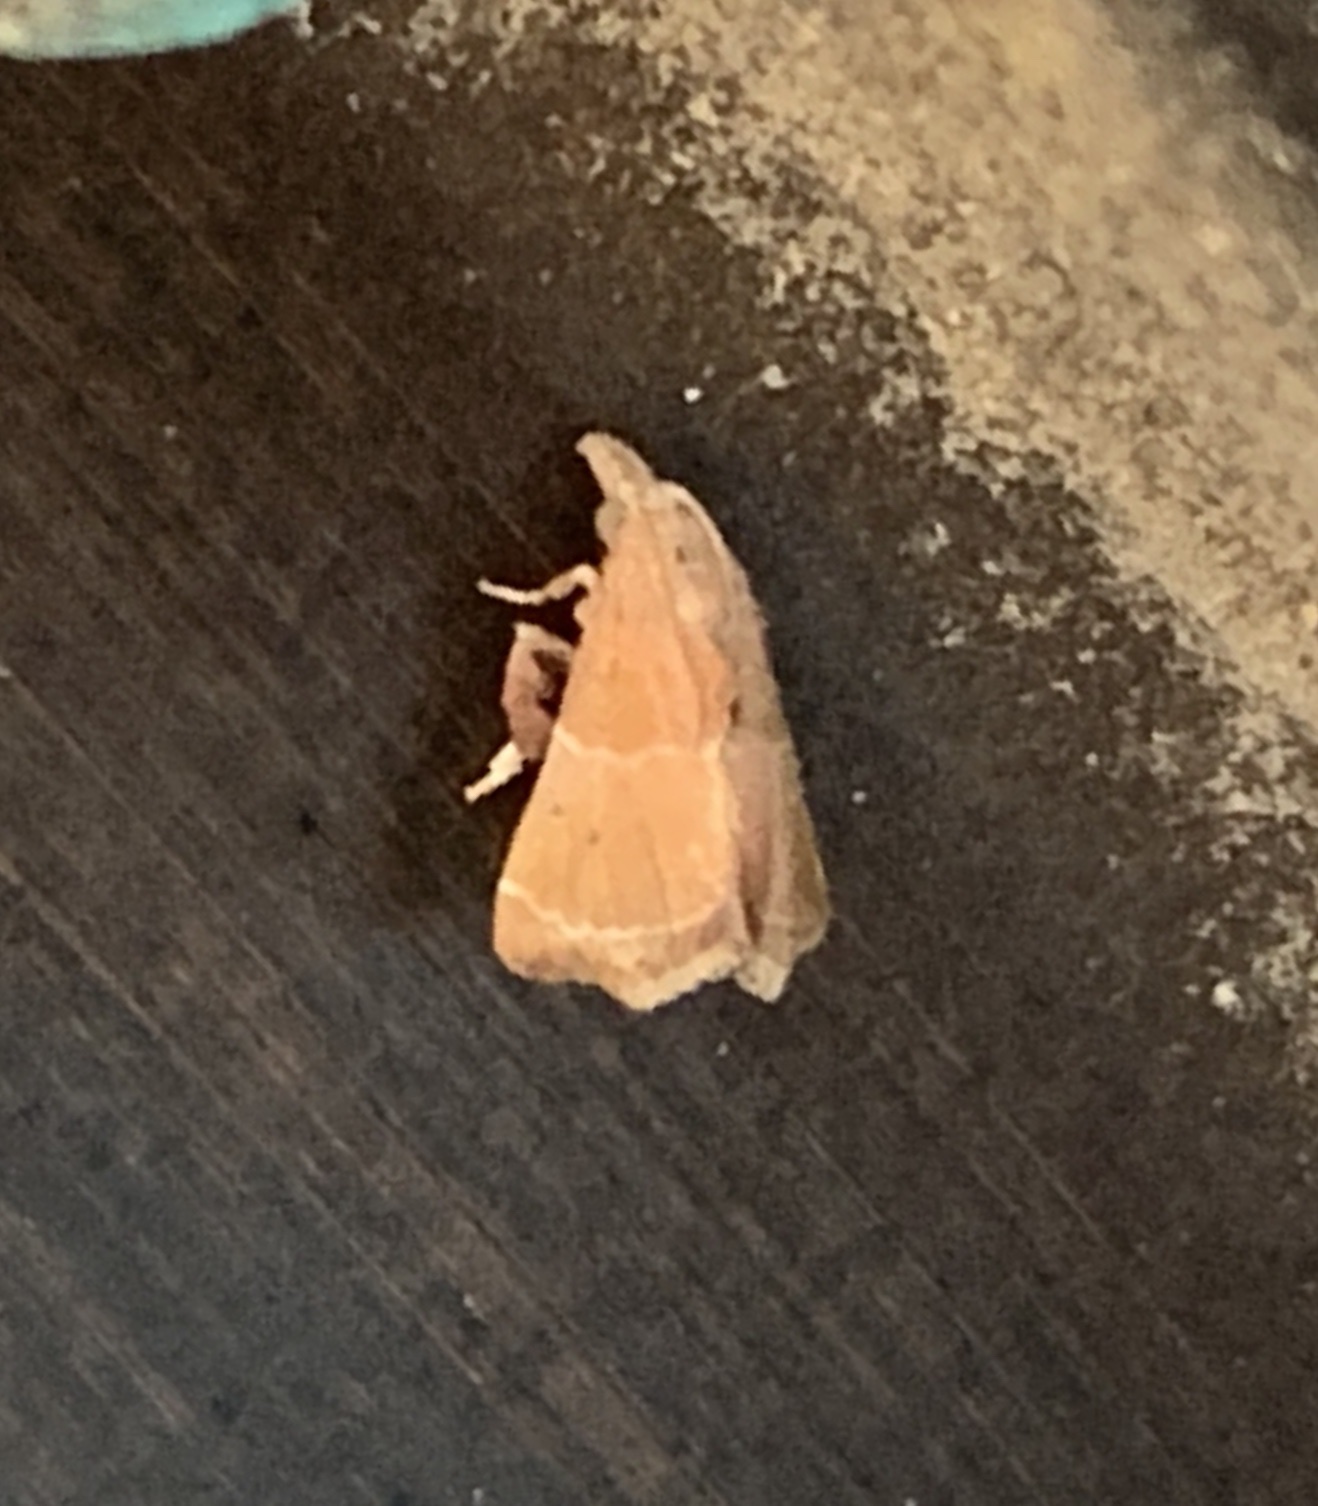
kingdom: Animalia
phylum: Arthropoda
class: Insecta
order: Lepidoptera
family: Pyralidae
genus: Streptopalpia
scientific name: Streptopalpia minusculalis
